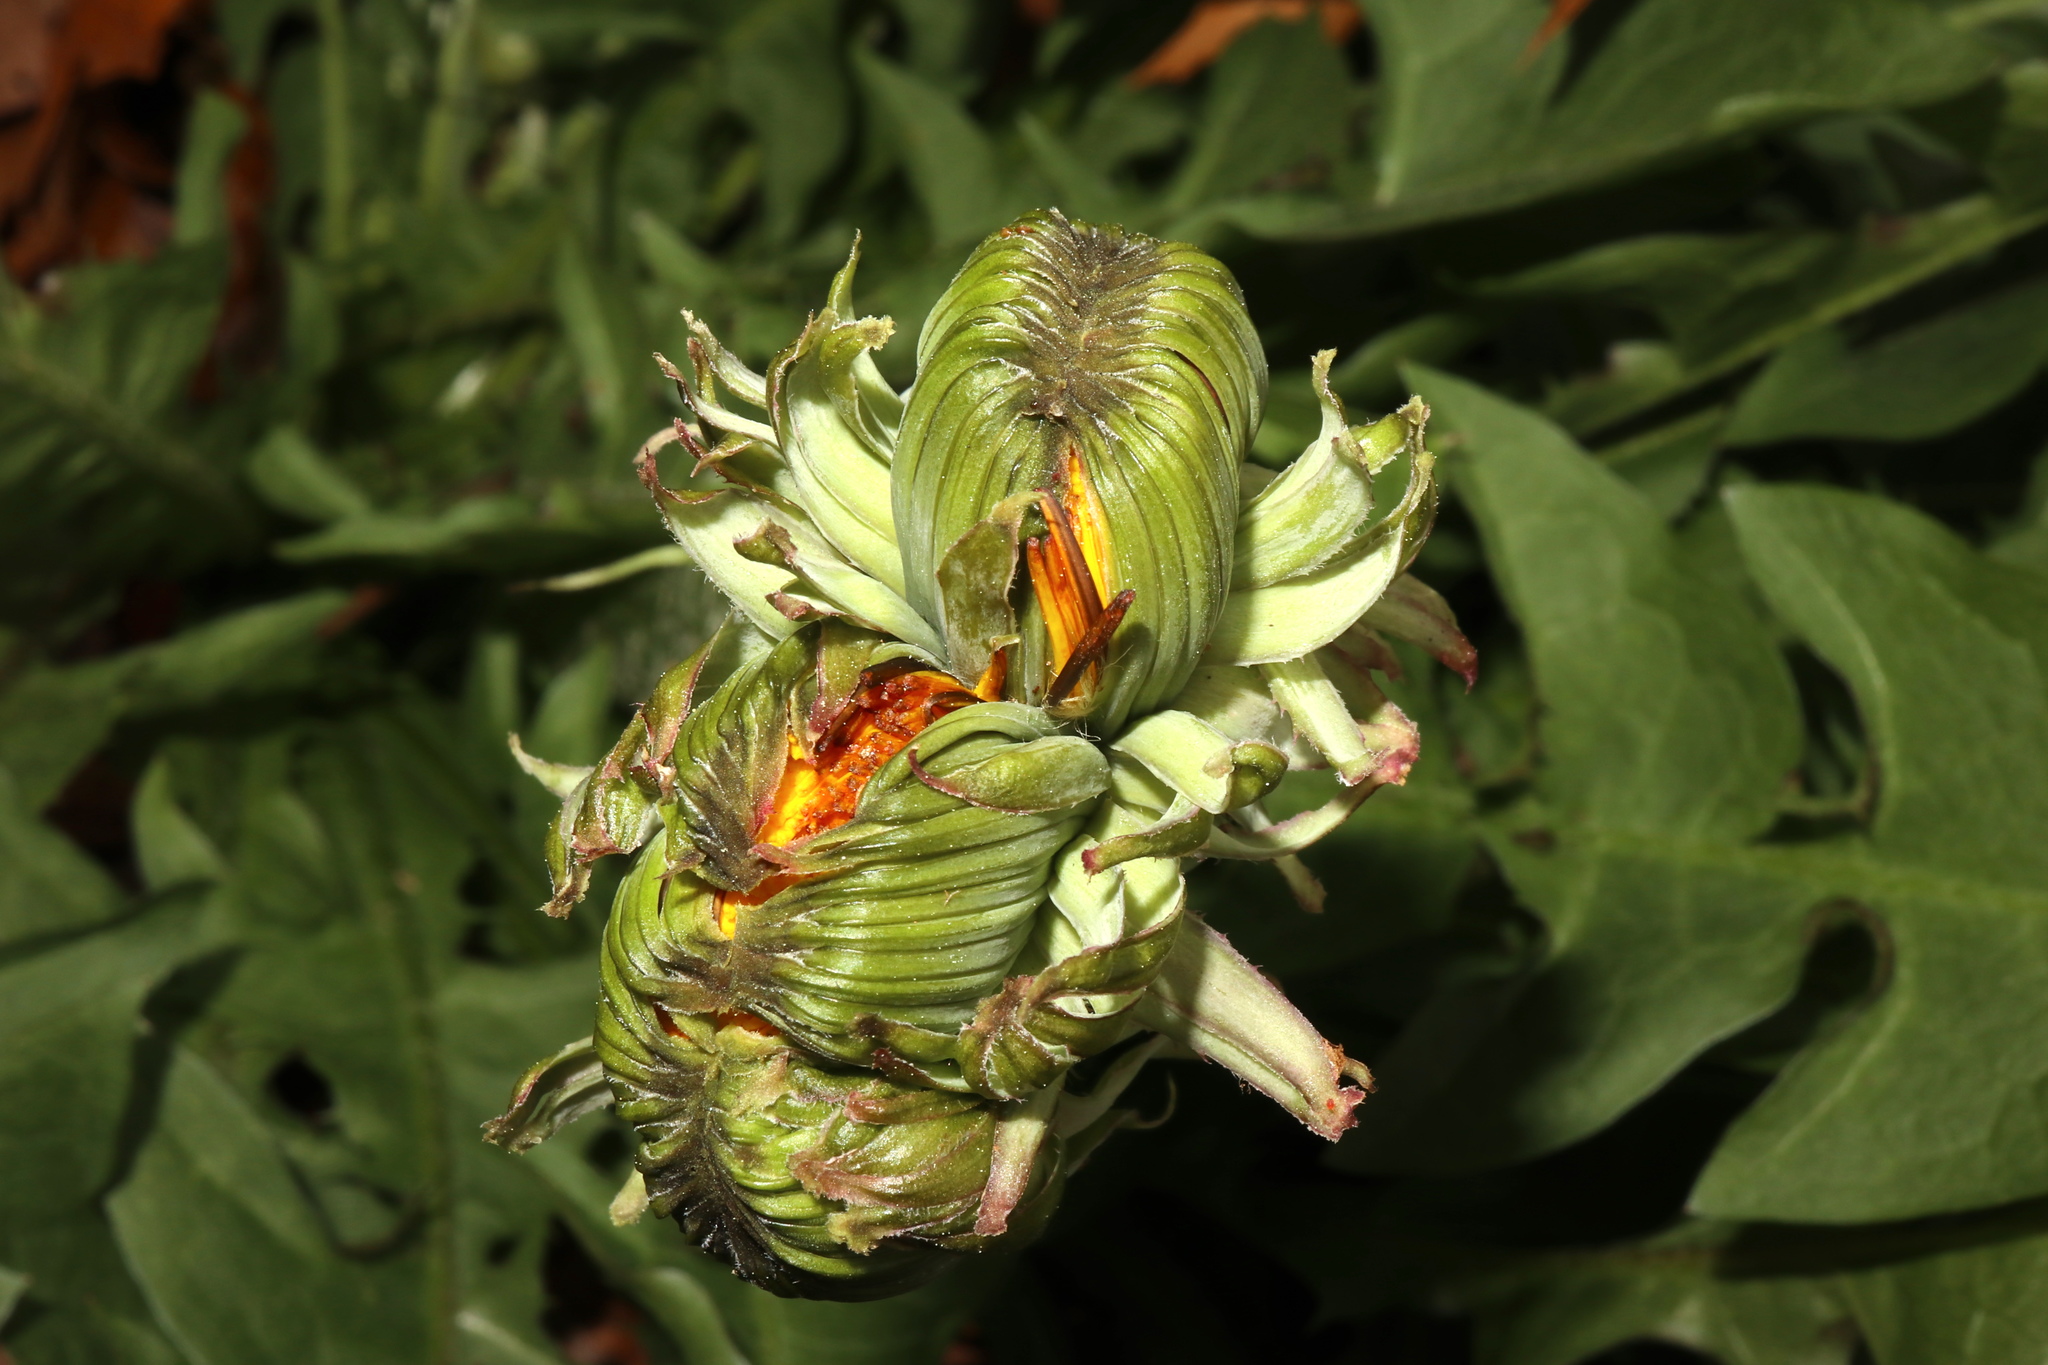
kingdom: Plantae
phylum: Tracheophyta
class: Magnoliopsida
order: Asterales
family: Asteraceae
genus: Taraxacum
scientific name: Taraxacum officinale
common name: Common dandelion
